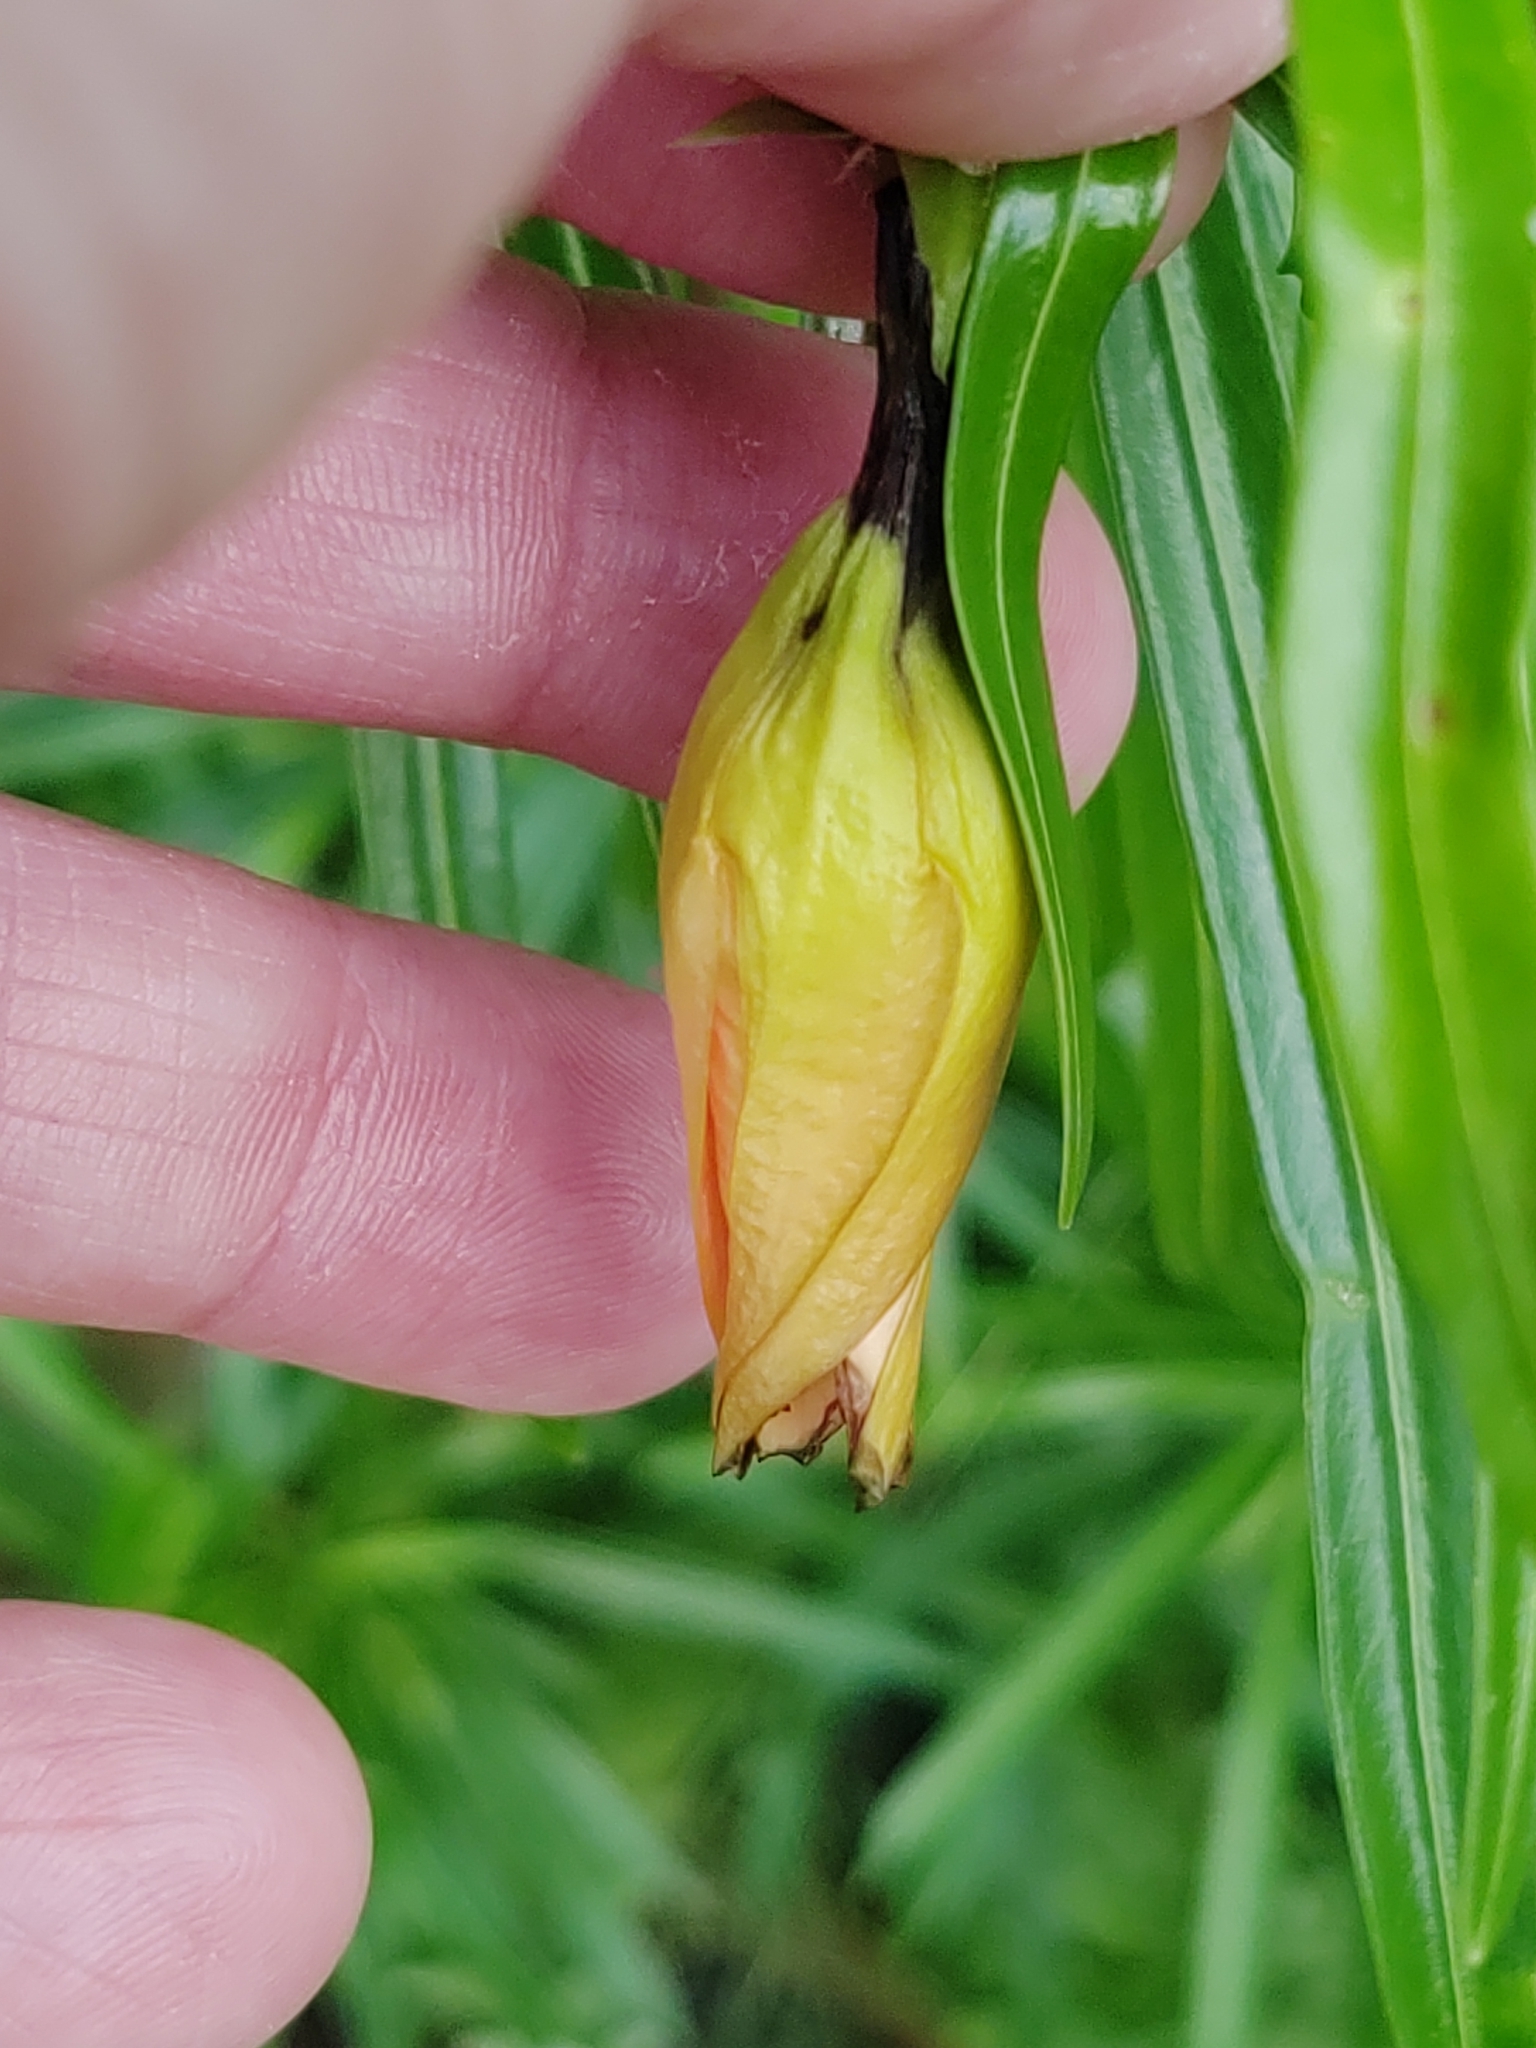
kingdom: Plantae
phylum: Tracheophyta
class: Magnoliopsida
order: Gentianales
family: Apocynaceae
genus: Cascabela
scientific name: Cascabela thevetia
